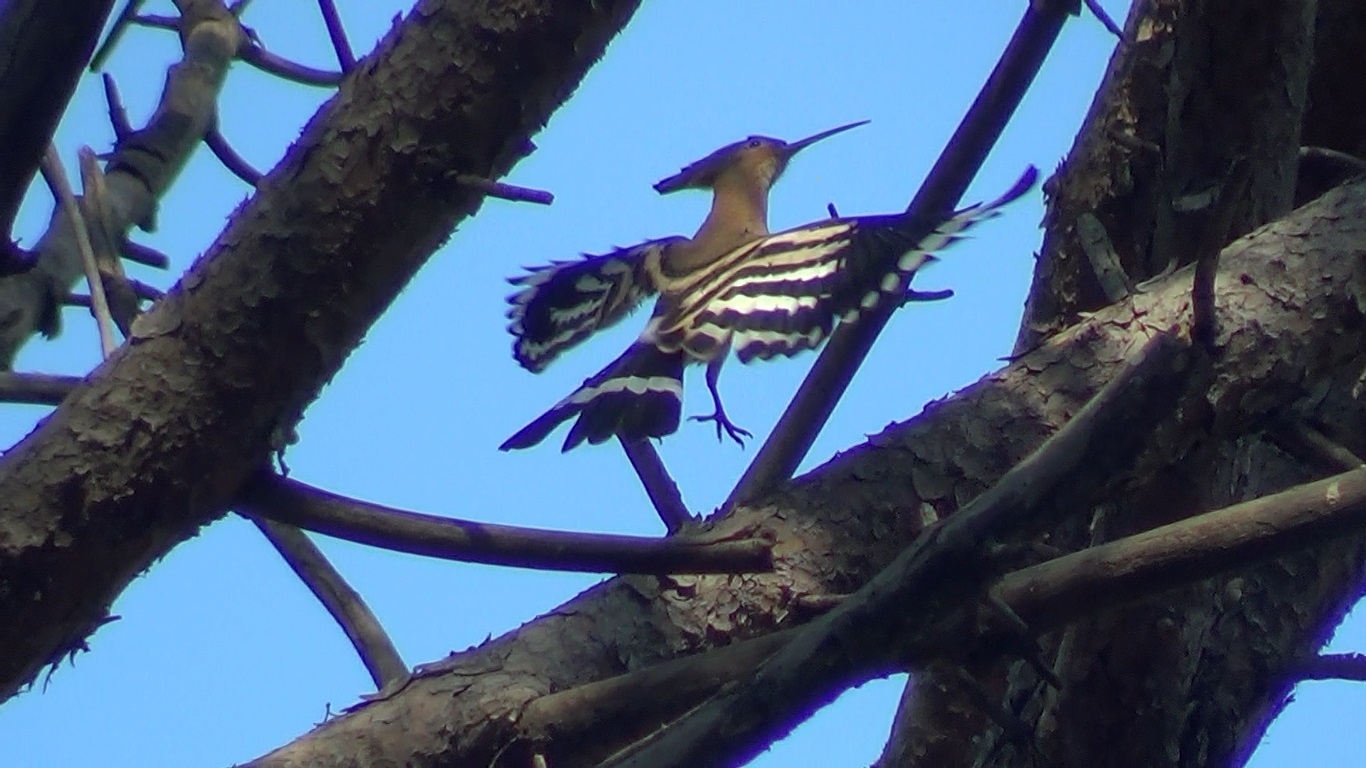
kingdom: Animalia
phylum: Chordata
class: Aves
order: Bucerotiformes
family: Upupidae
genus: Upupa
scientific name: Upupa epops
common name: Eurasian hoopoe
